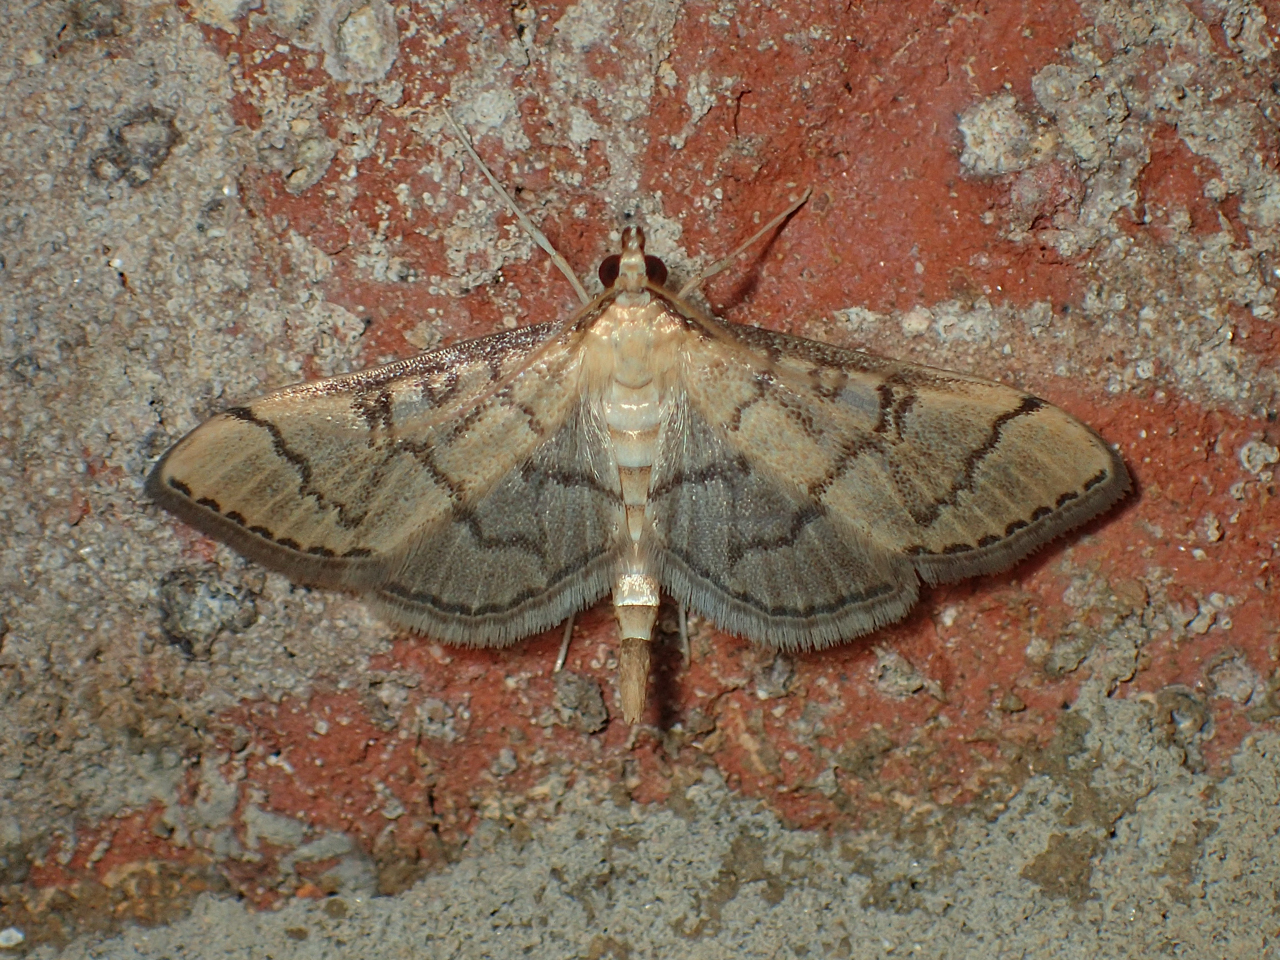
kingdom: Animalia
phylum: Arthropoda
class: Insecta
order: Lepidoptera
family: Crambidae
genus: Lamprosema
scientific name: Lamprosema Blepharomastix ranalis
